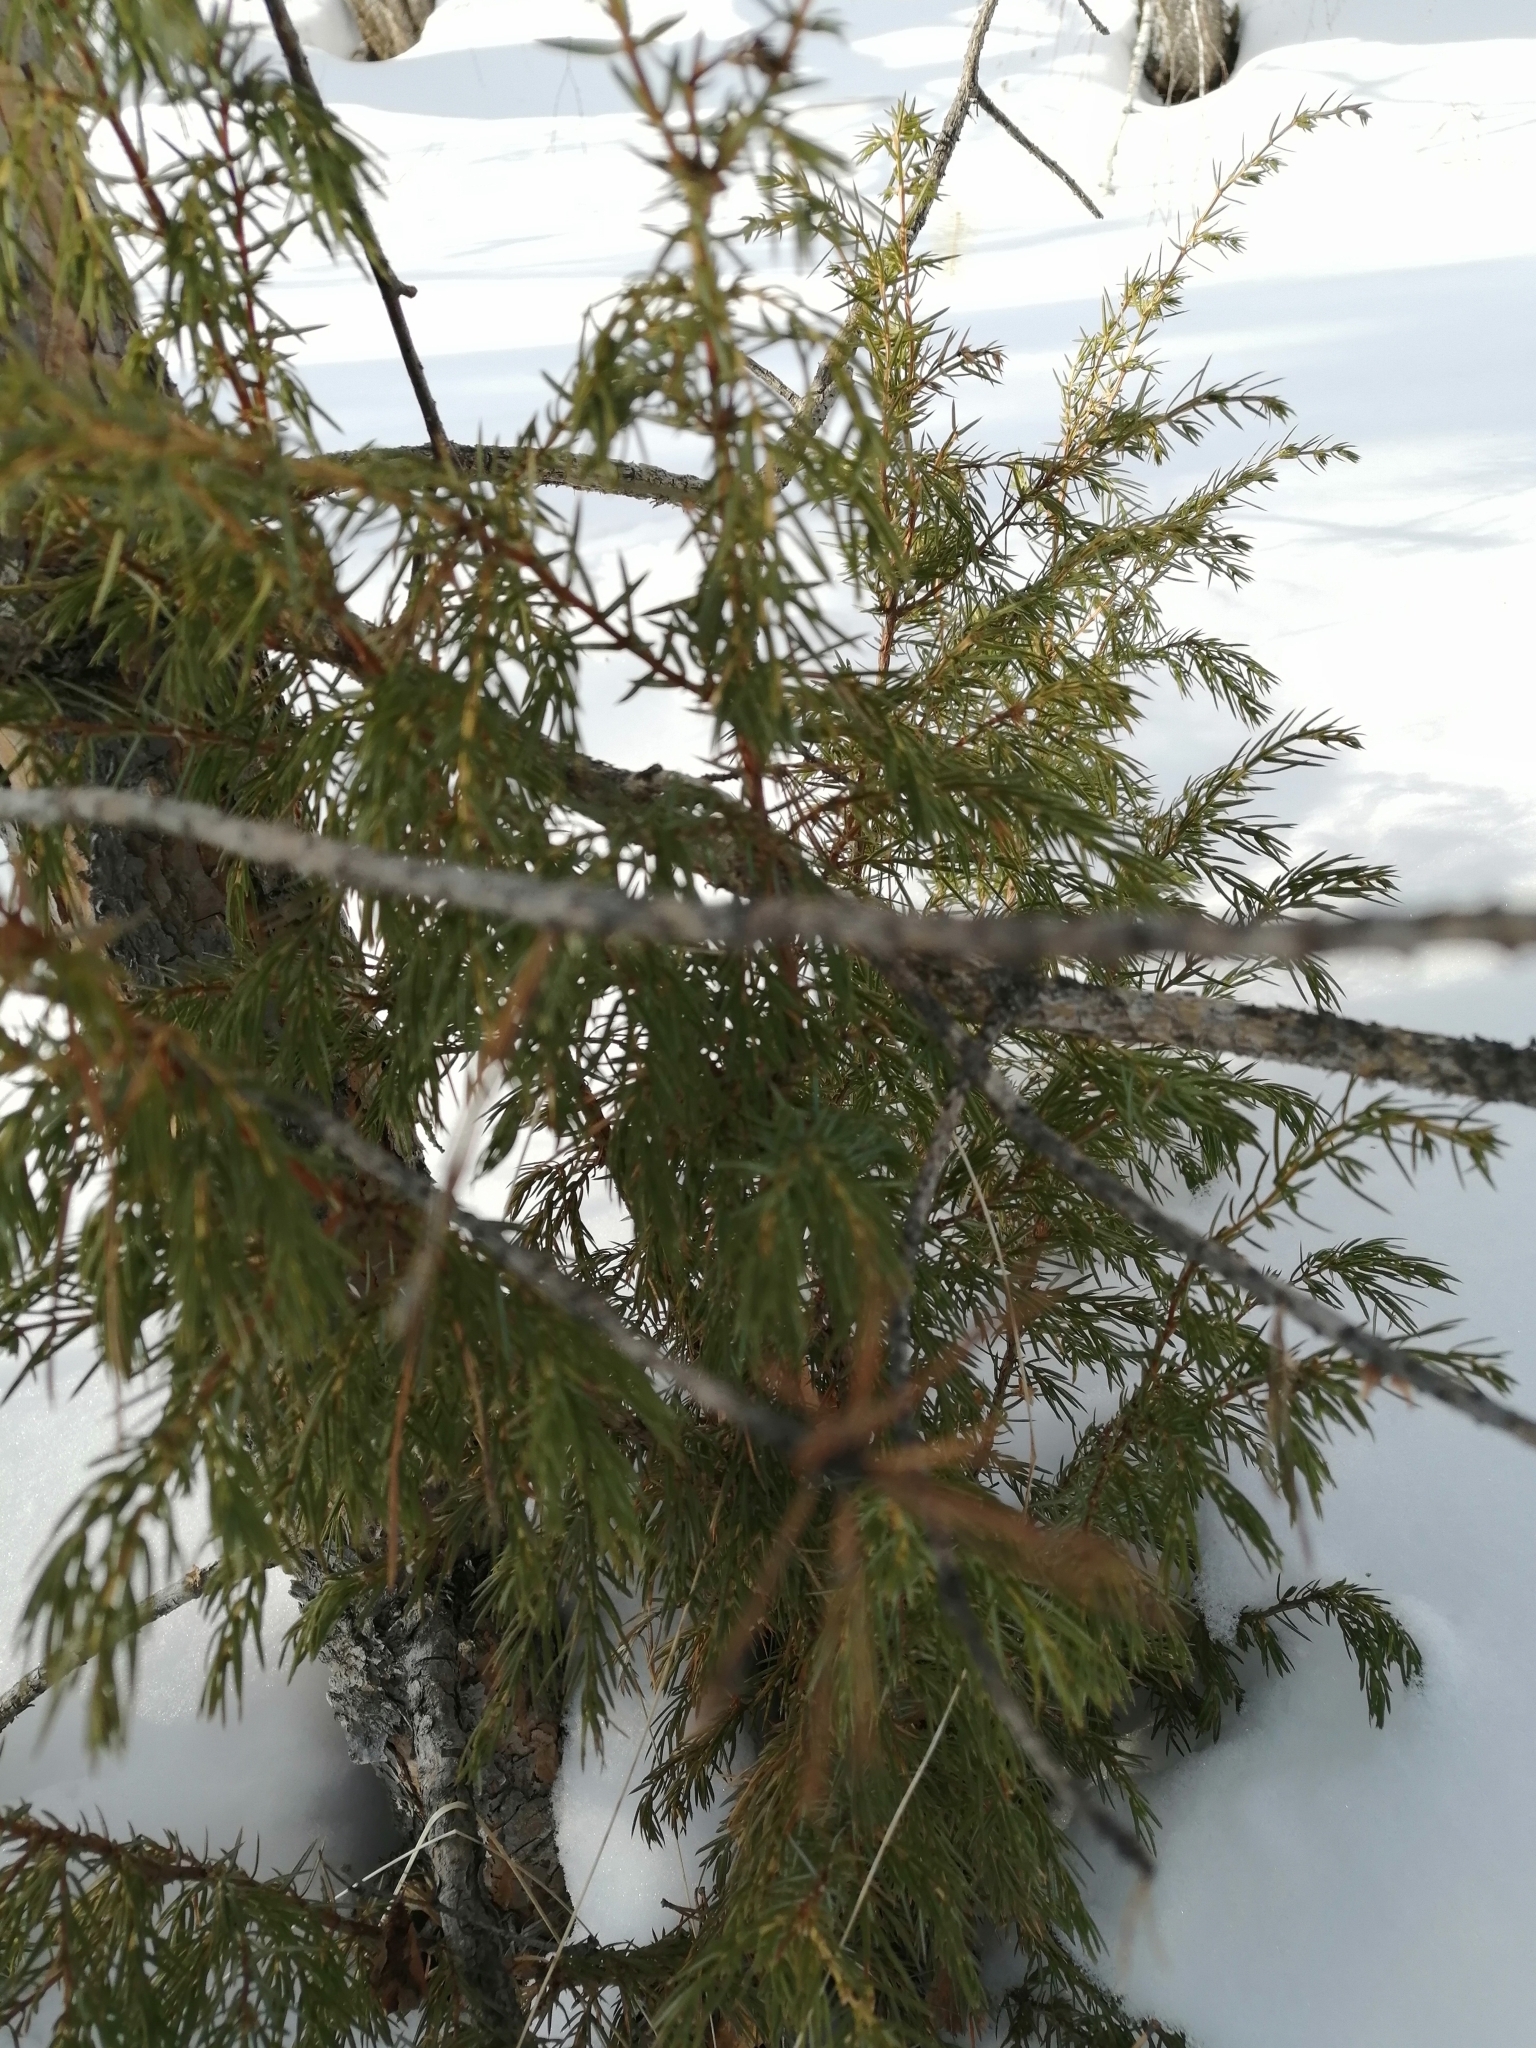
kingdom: Plantae
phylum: Tracheophyta
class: Pinopsida
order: Pinales
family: Cupressaceae
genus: Juniperus
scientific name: Juniperus communis
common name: Common juniper
